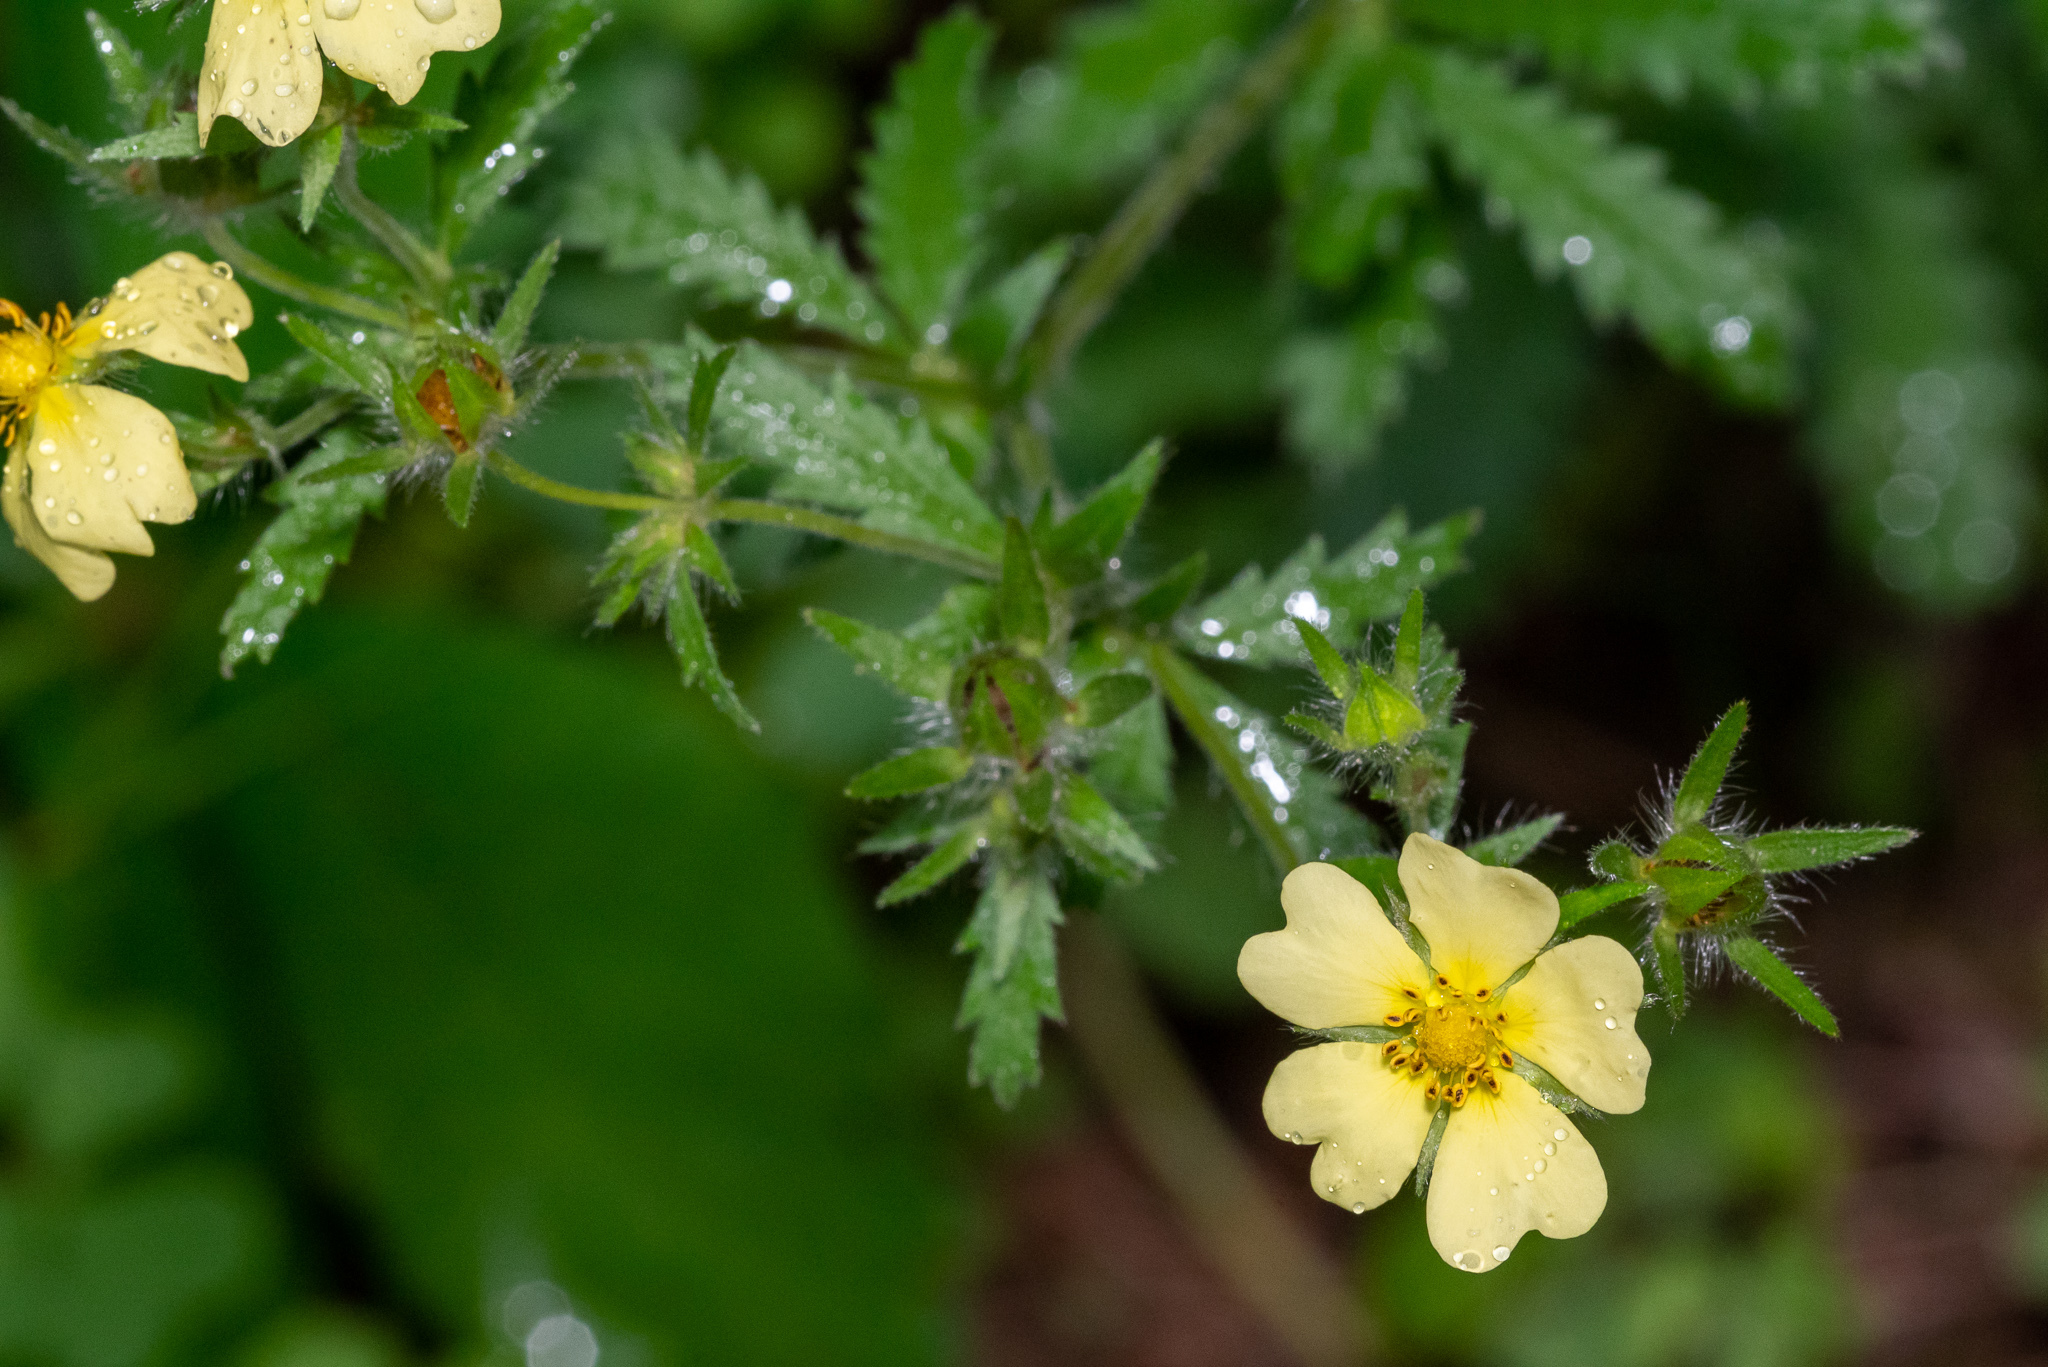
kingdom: Plantae
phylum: Tracheophyta
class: Magnoliopsida
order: Rosales
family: Rosaceae
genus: Potentilla
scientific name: Potentilla recta
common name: Sulphur cinquefoil
